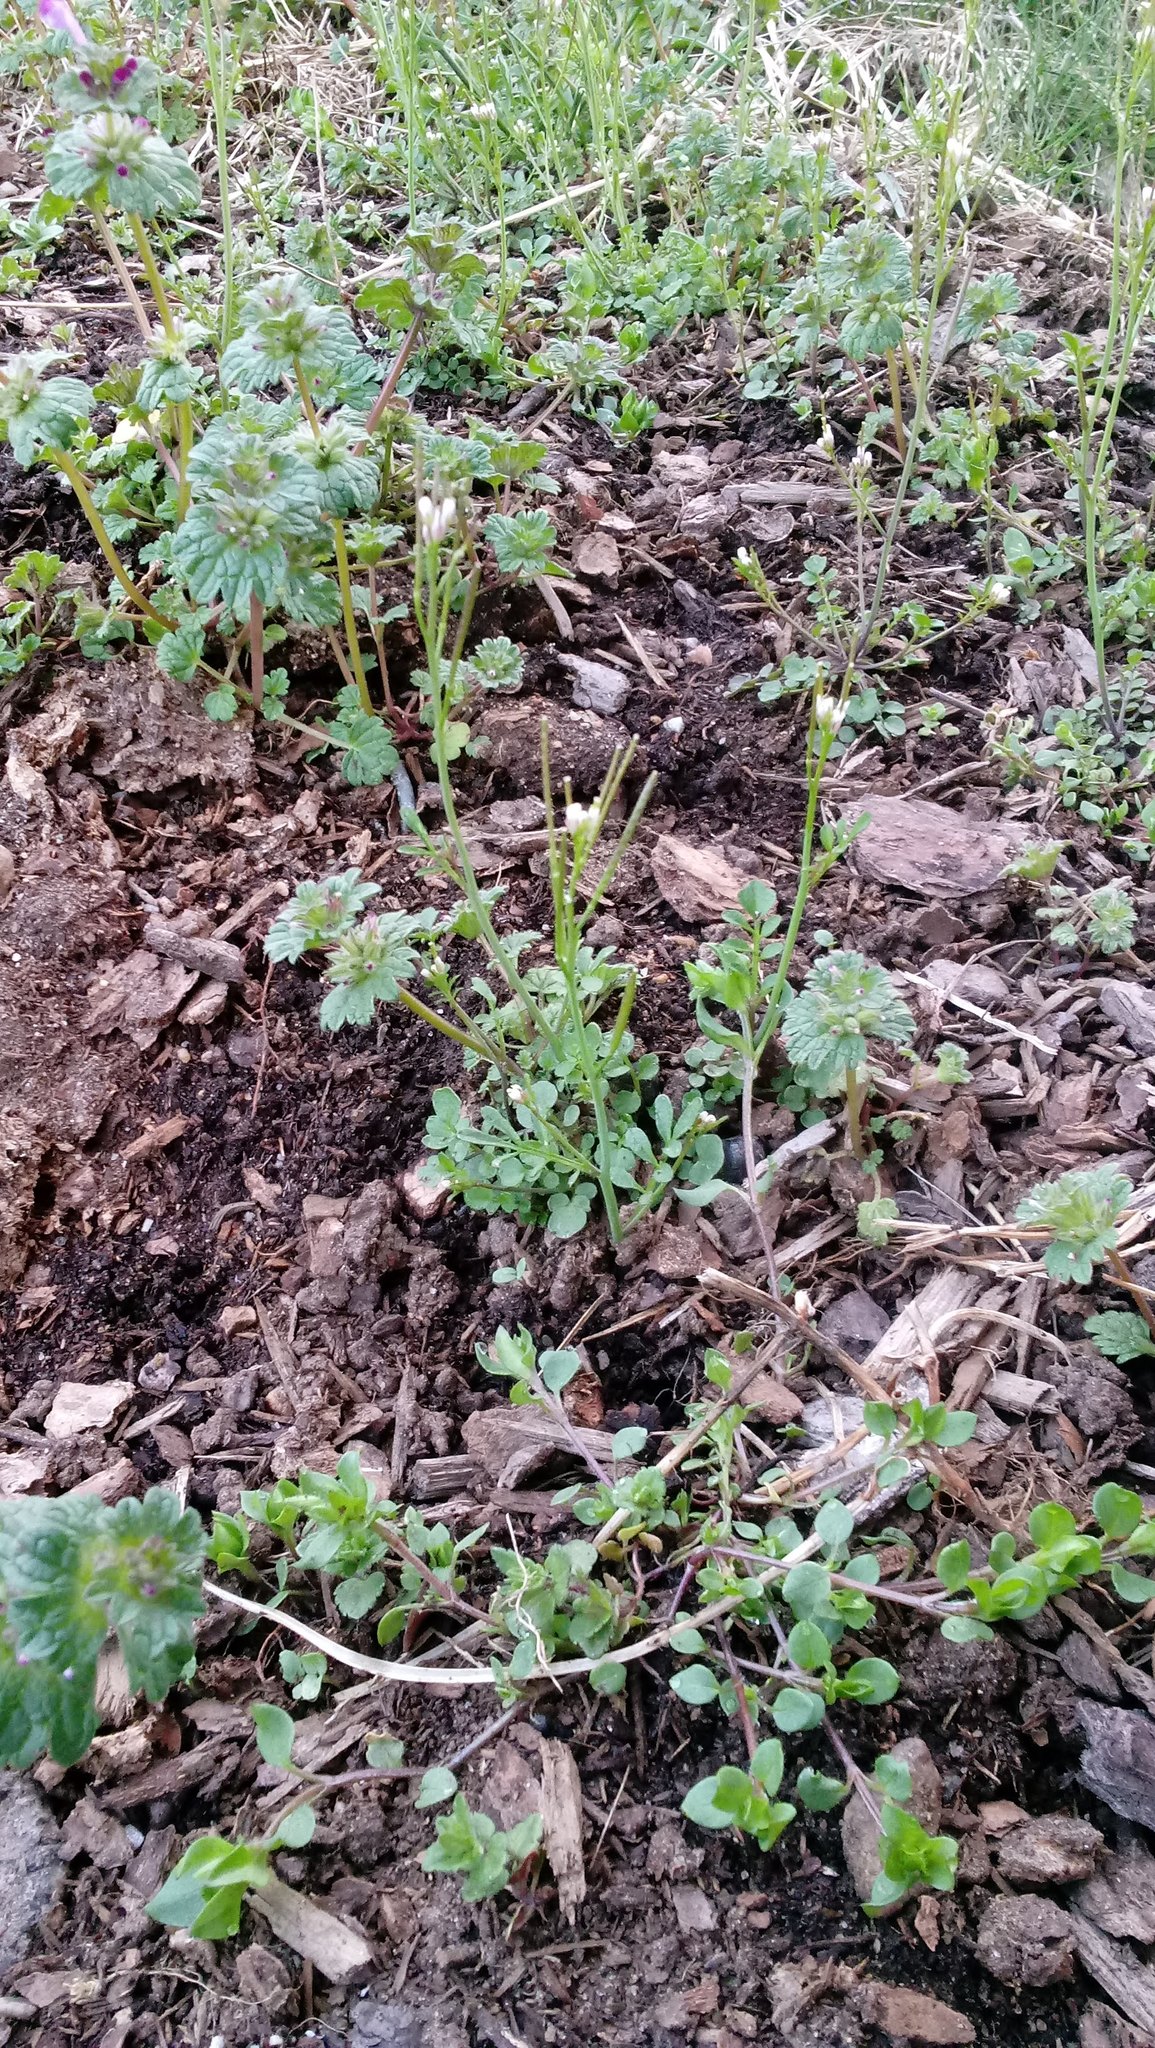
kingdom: Plantae
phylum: Tracheophyta
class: Magnoliopsida
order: Brassicales
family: Brassicaceae
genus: Cardamine
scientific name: Cardamine hirsuta
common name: Hairy bittercress
